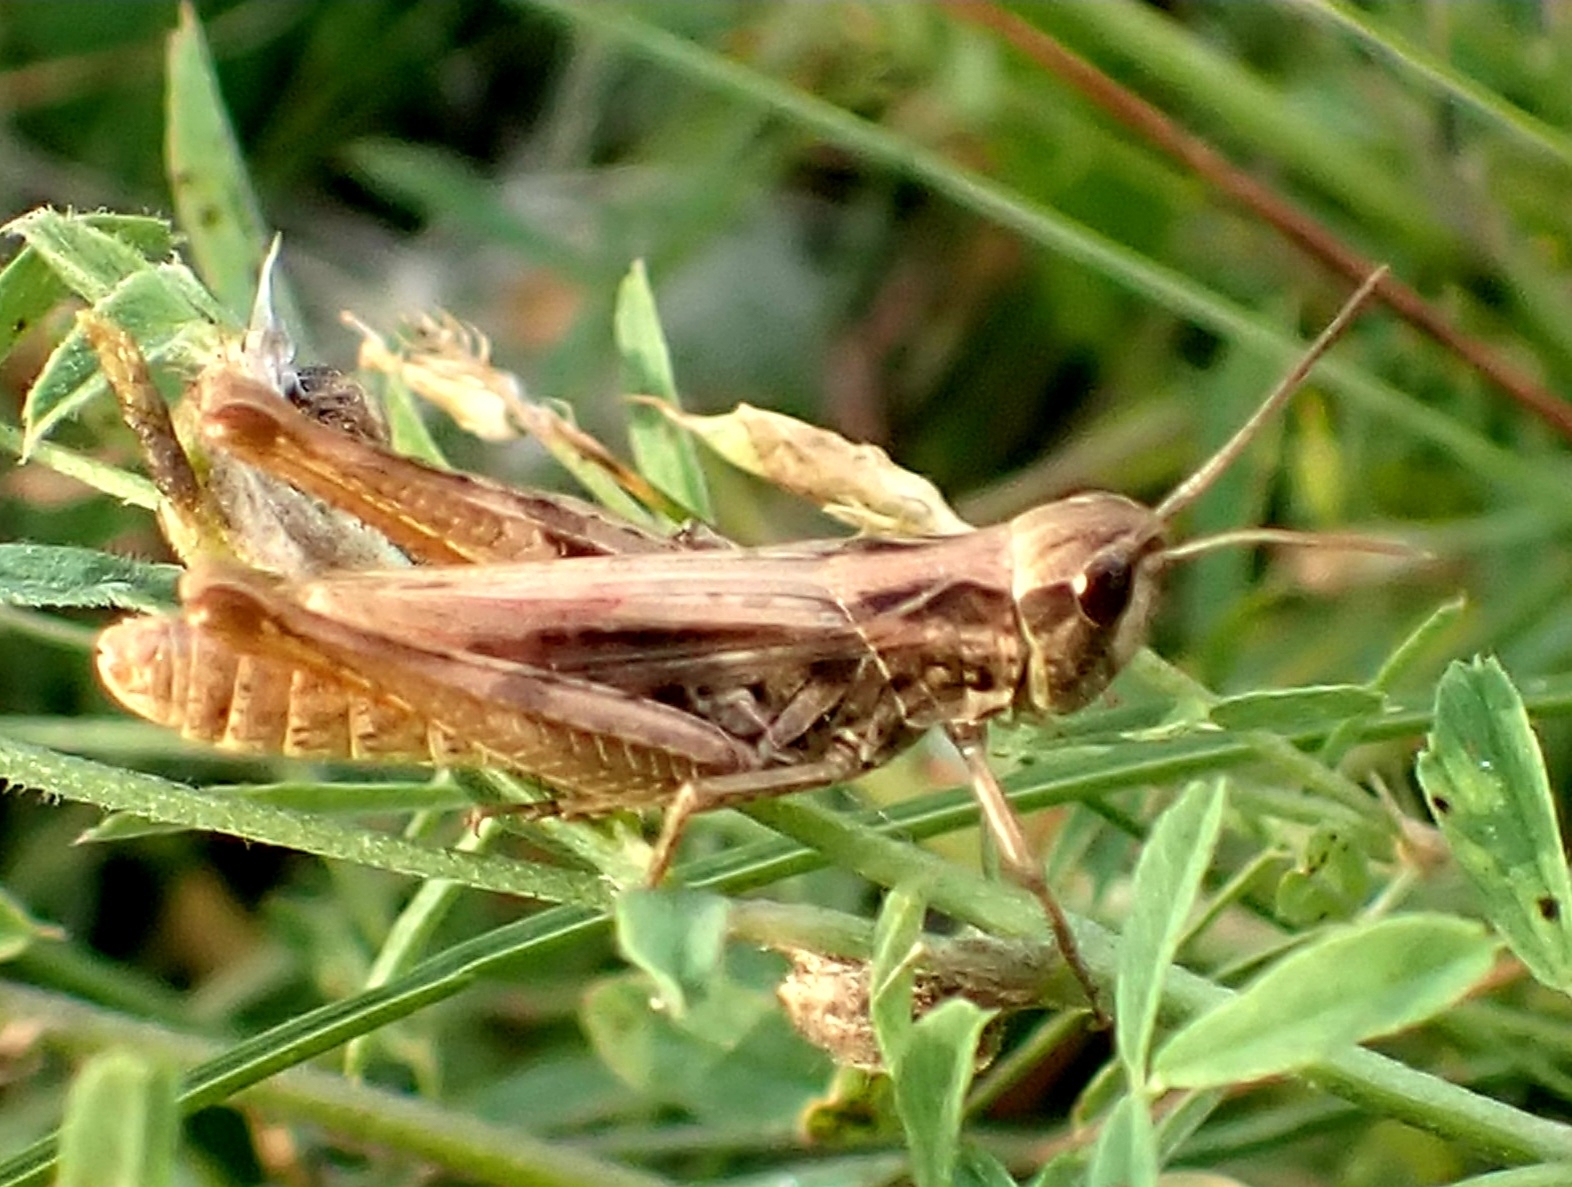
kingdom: Animalia
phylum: Arthropoda
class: Insecta
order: Orthoptera
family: Acrididae
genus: Chorthippus
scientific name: Chorthippus apricarius
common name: Upland field grasshopper
